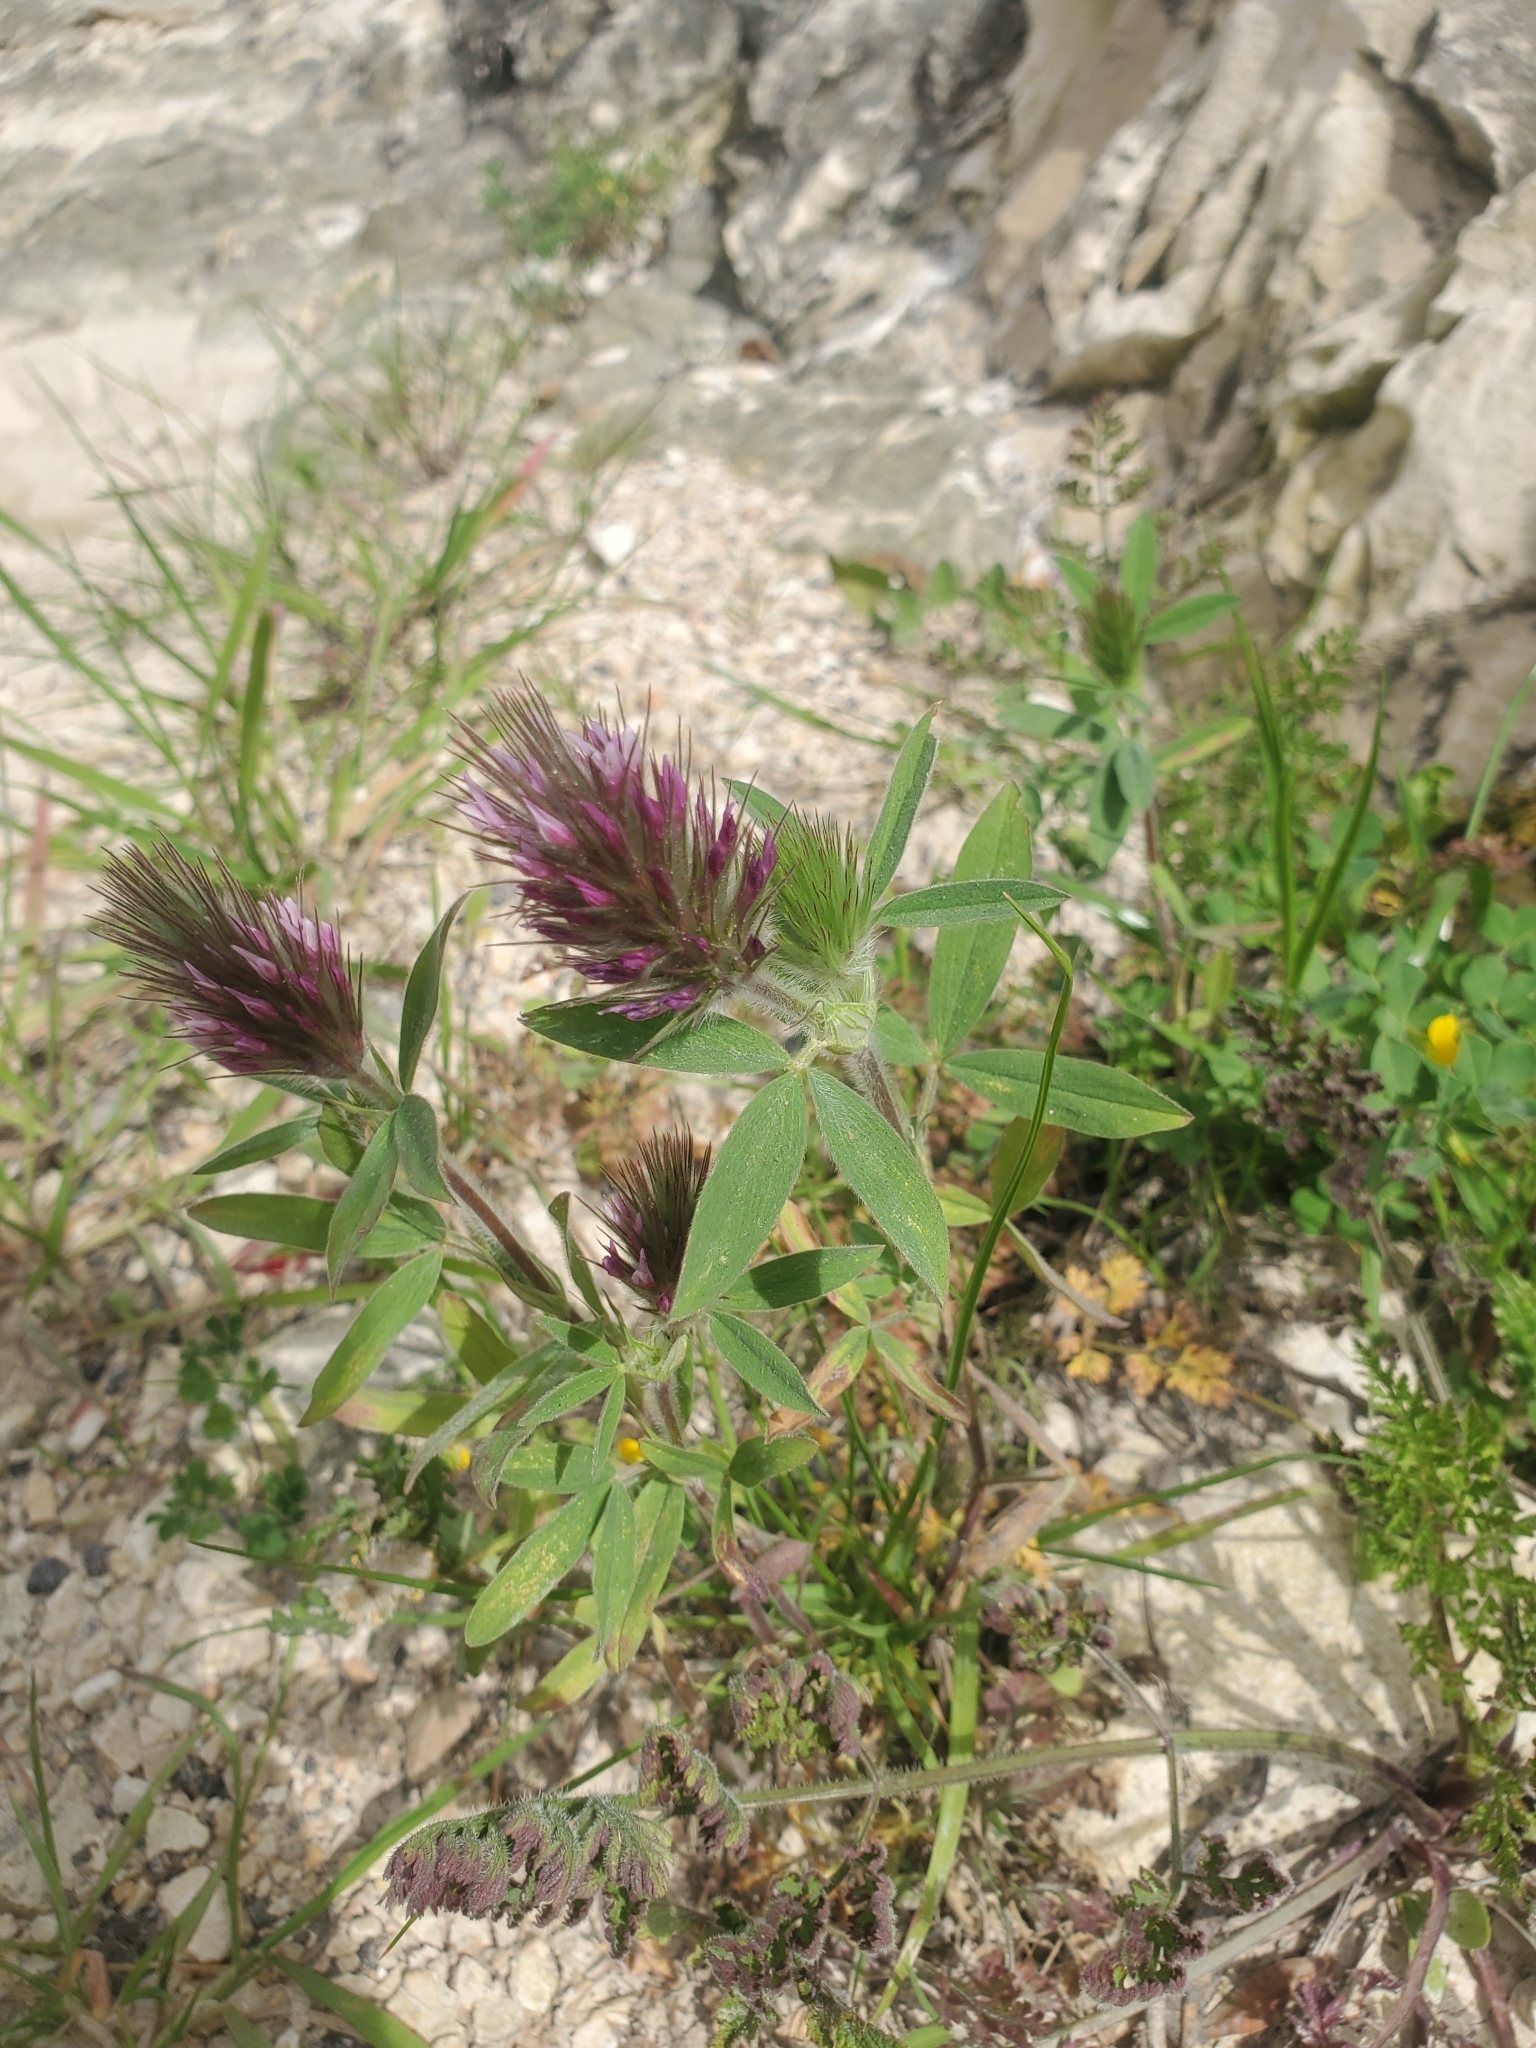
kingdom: Plantae
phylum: Tracheophyta
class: Magnoliopsida
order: Fabales
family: Fabaceae
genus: Trifolium
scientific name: Trifolium dasyurum
